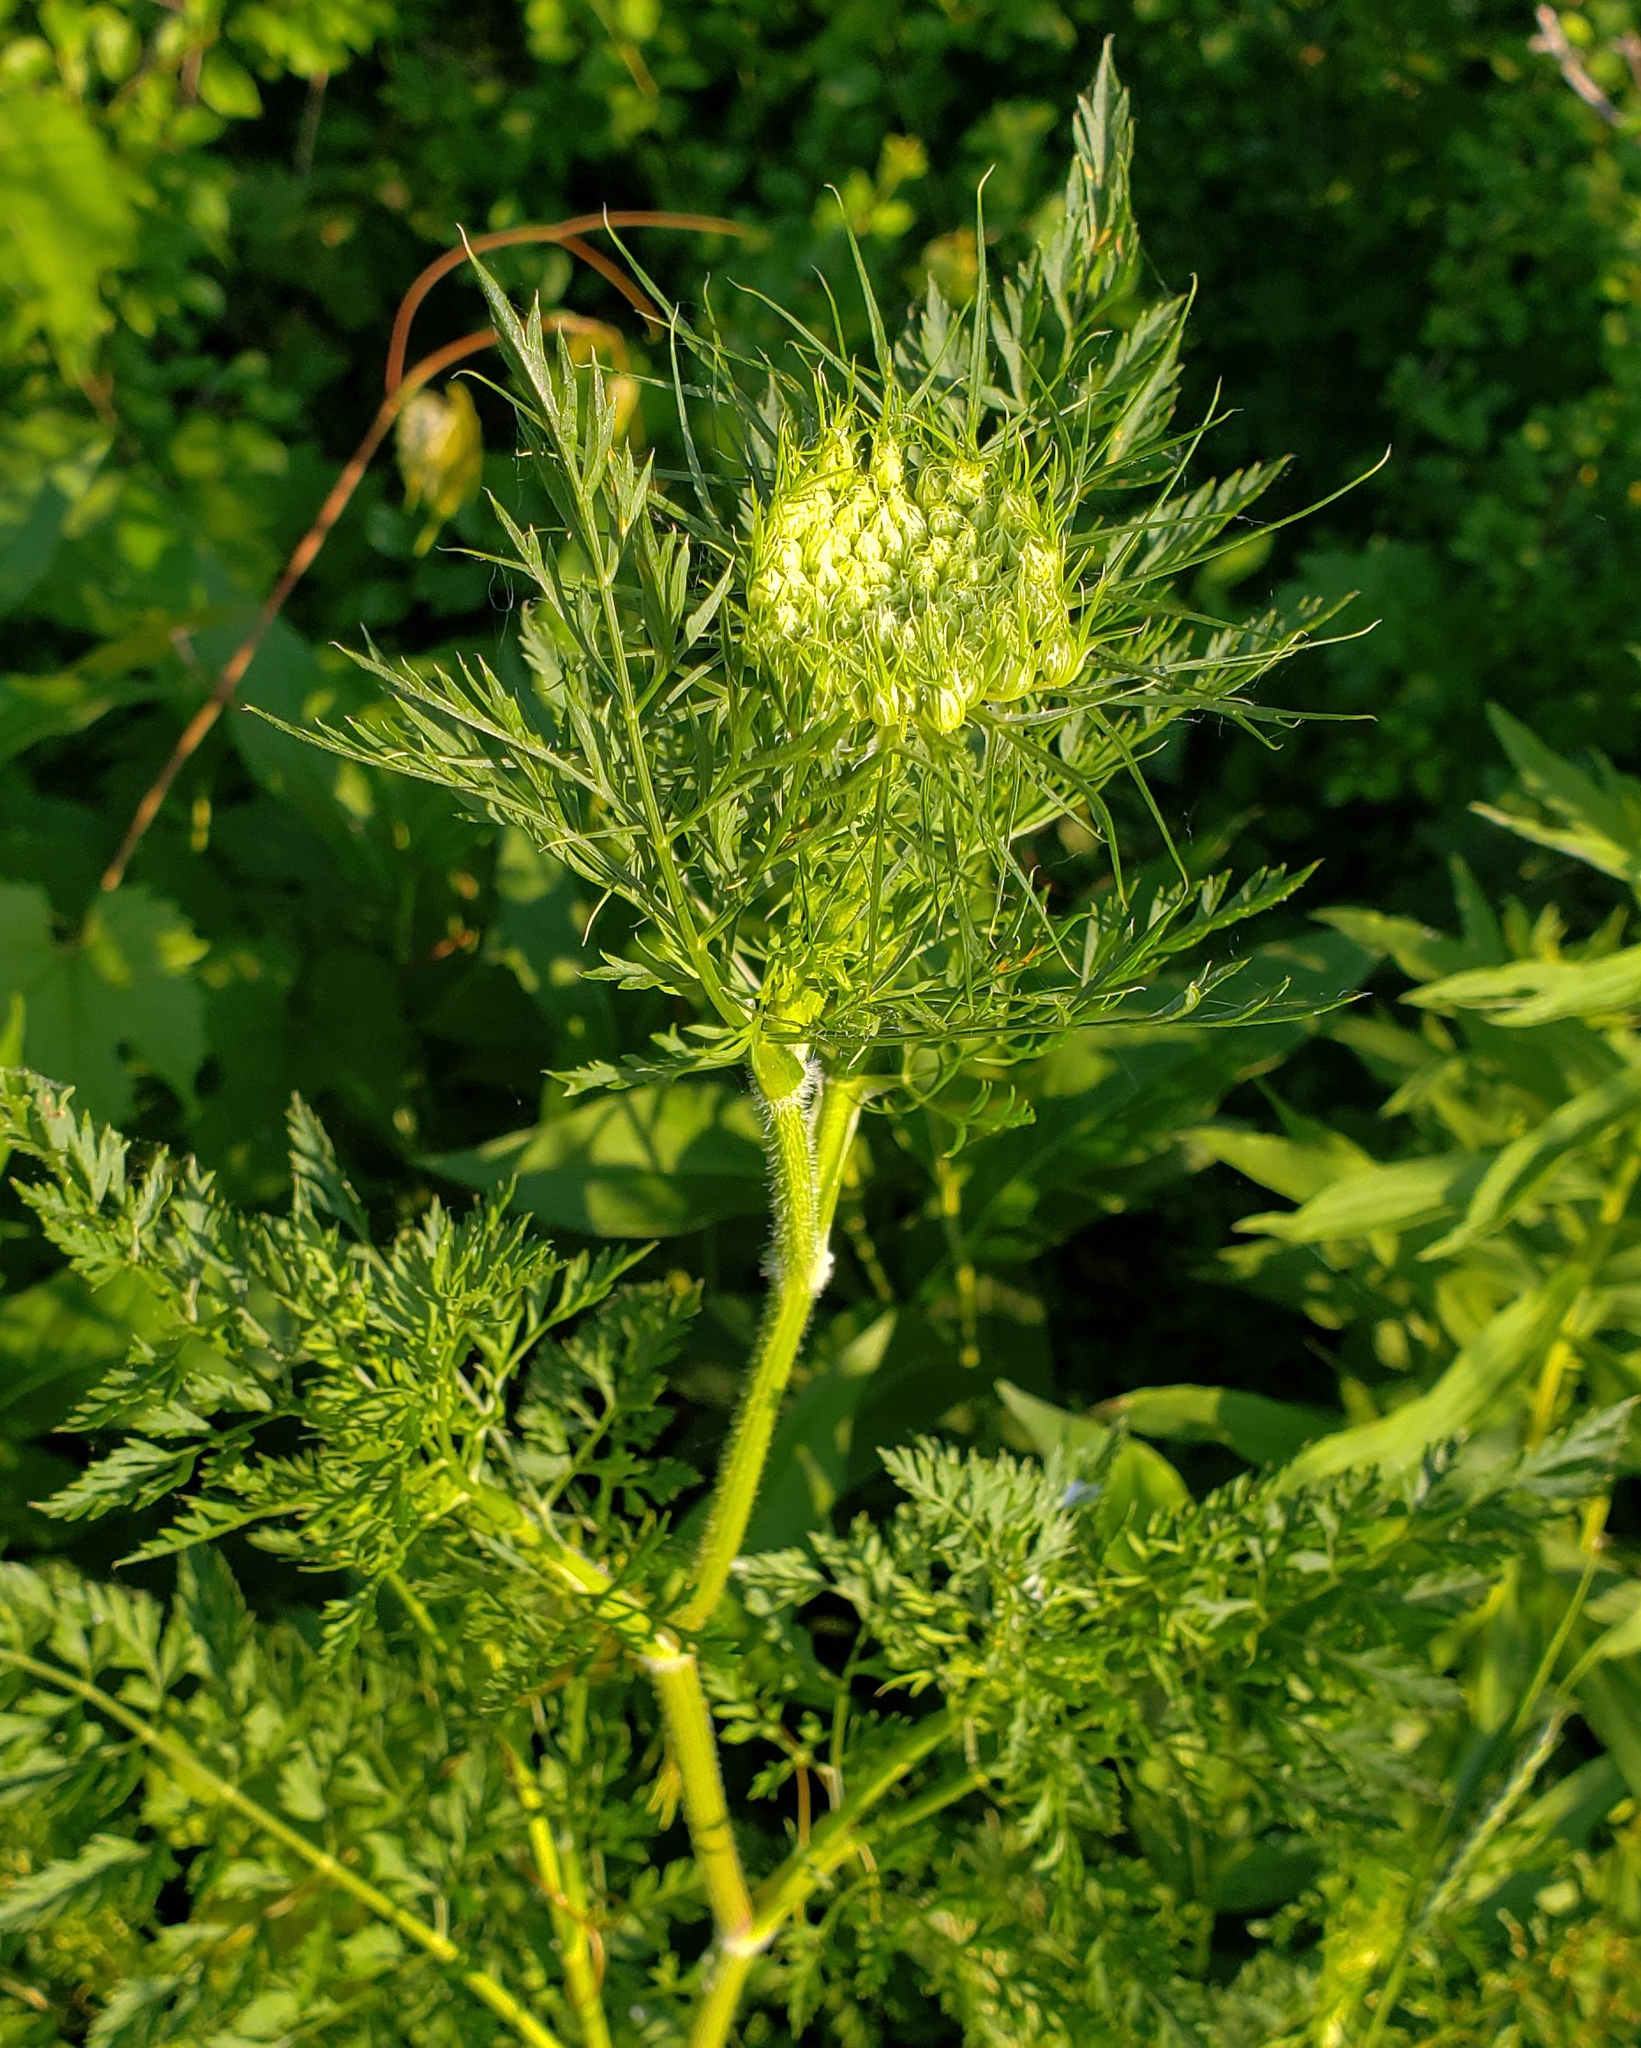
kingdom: Plantae
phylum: Tracheophyta
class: Magnoliopsida
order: Apiales
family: Apiaceae
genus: Daucus
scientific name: Daucus carota
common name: Wild carrot
